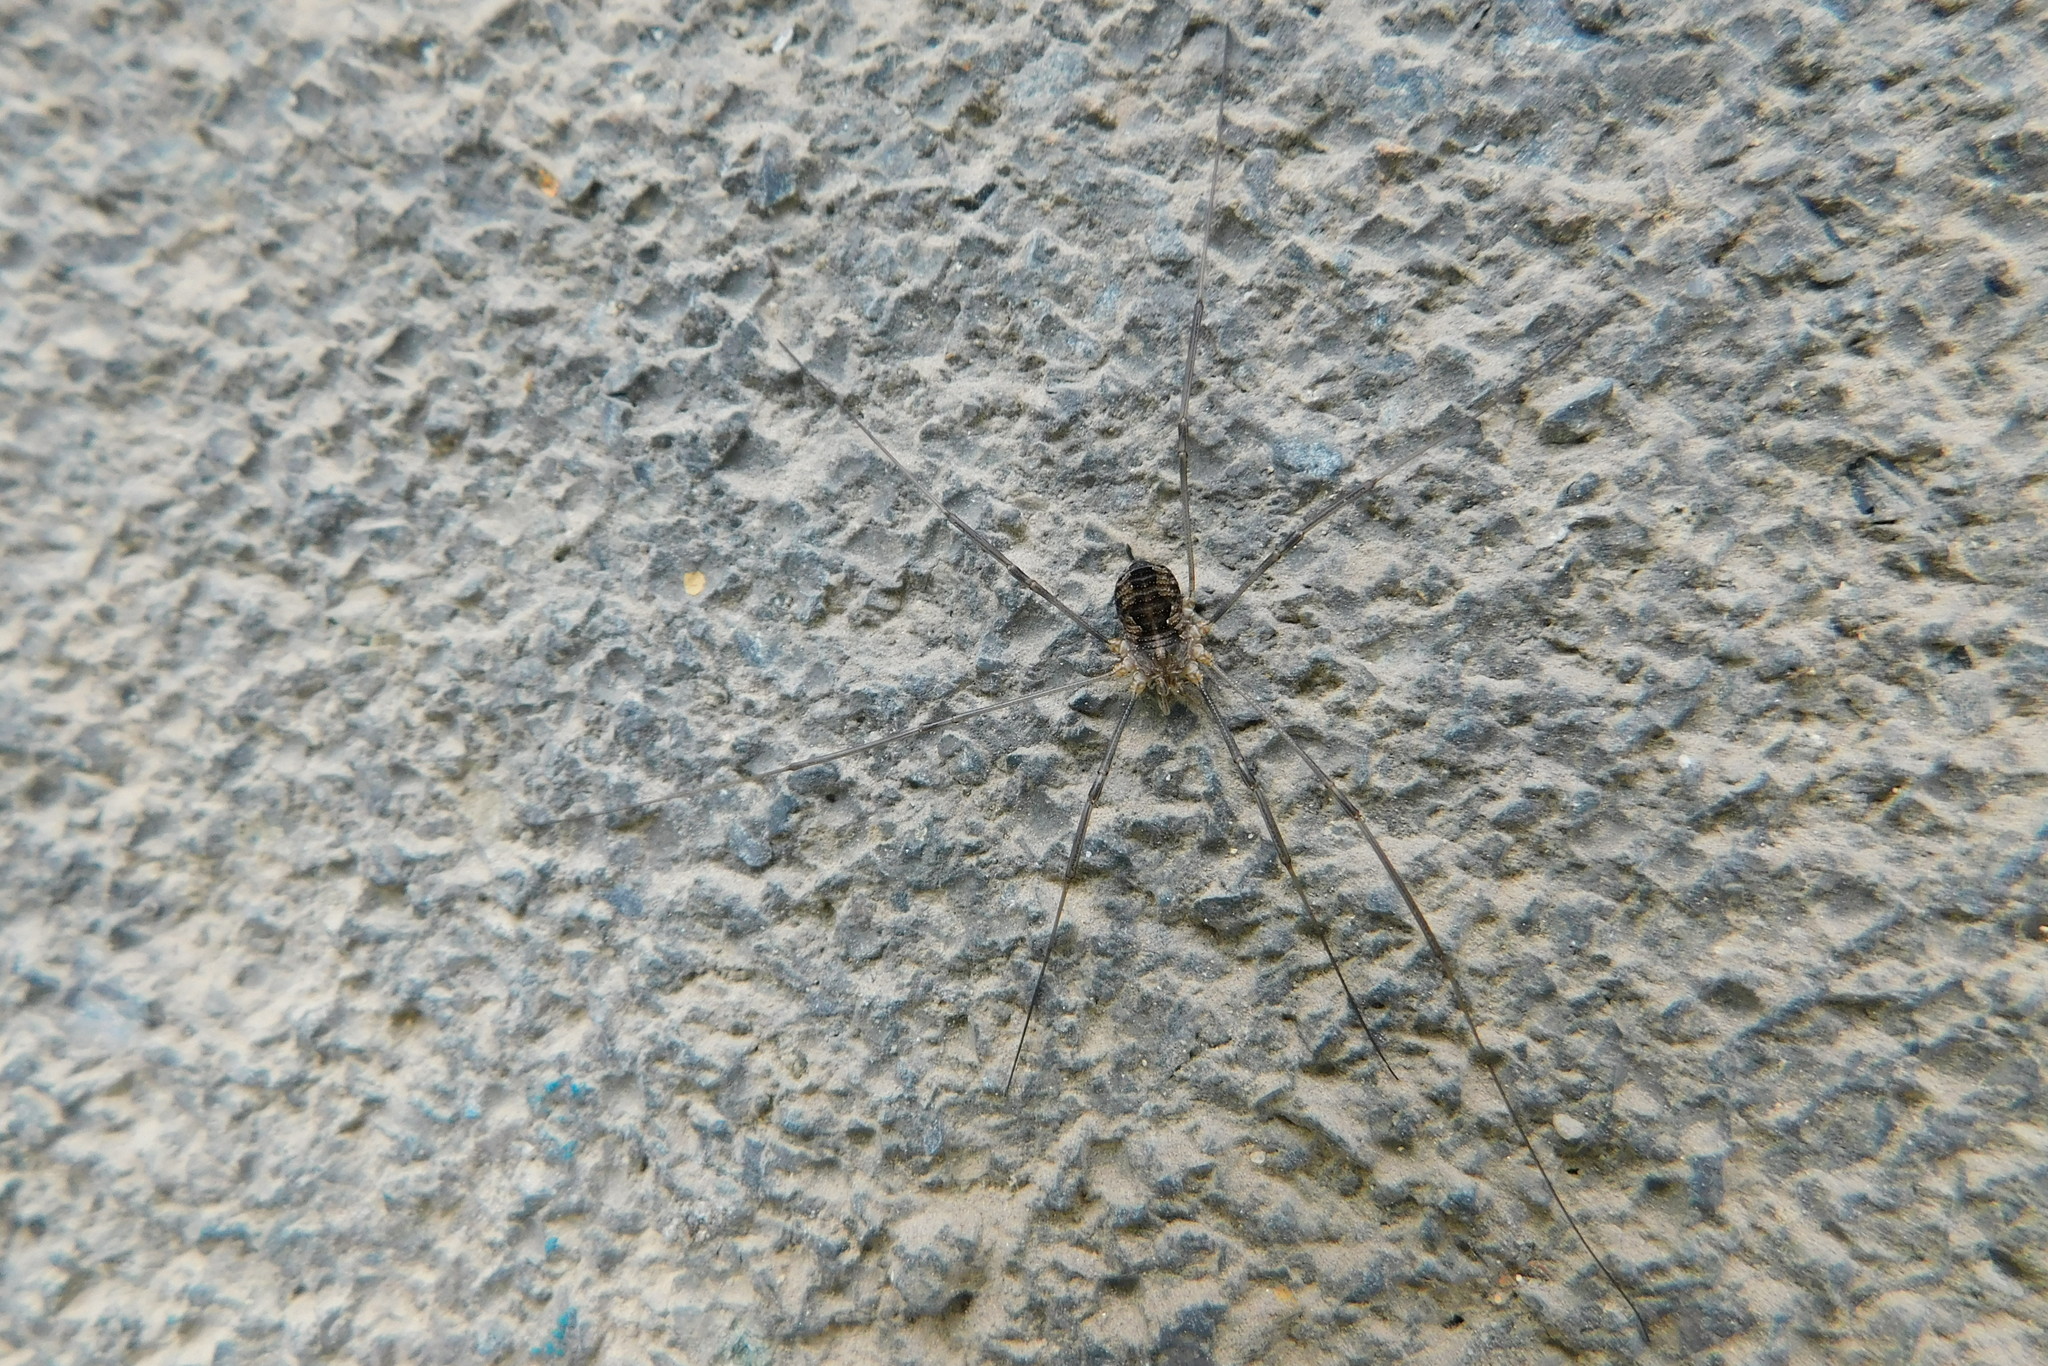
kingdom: Animalia
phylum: Arthropoda
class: Arachnida
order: Opiliones
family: Phalangiidae
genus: Phalangium
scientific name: Phalangium opilio
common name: Daddy longleg
